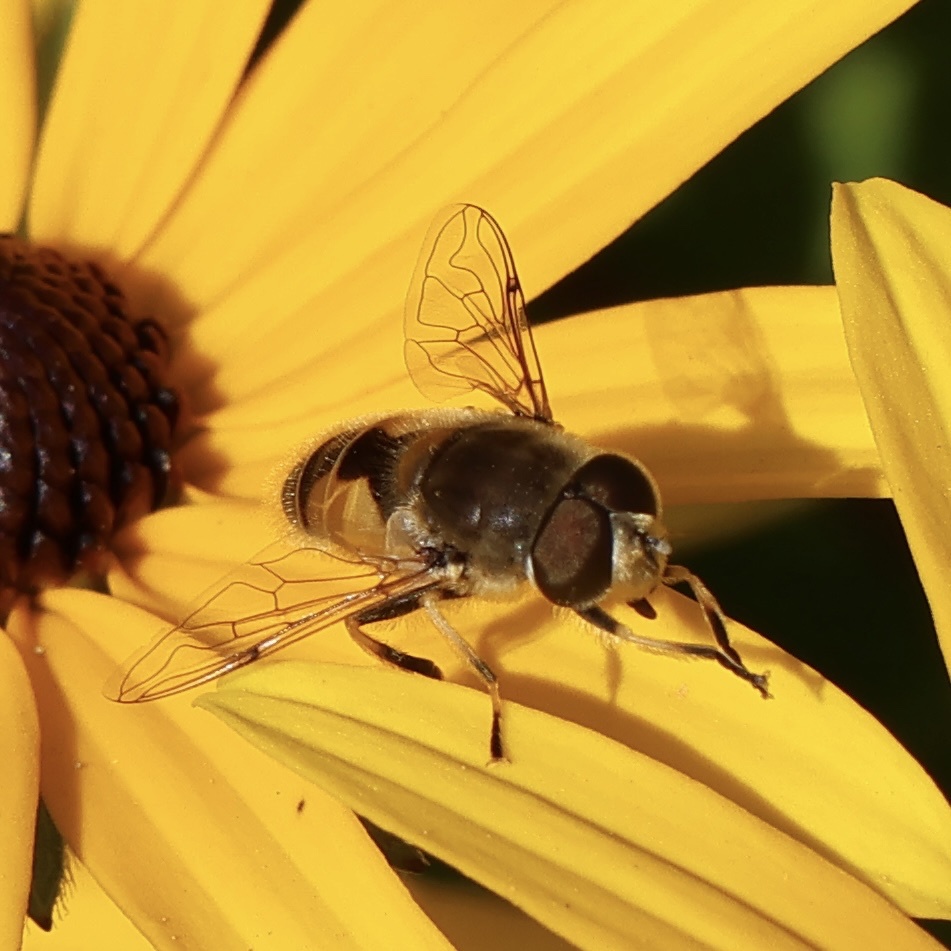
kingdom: Animalia
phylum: Arthropoda
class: Insecta
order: Diptera
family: Syrphidae
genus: Eristalis
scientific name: Eristalis arbustorum
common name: Hover fly
